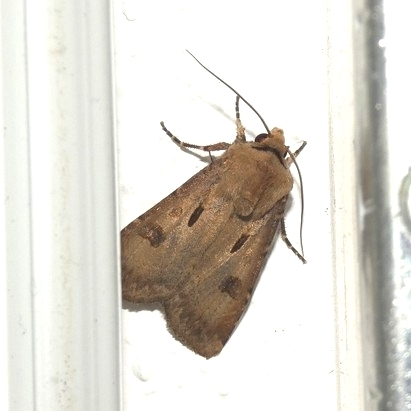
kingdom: Animalia
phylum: Arthropoda
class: Insecta
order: Lepidoptera
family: Noctuidae
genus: Agrotis
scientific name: Agrotis exclamationis
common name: Heart and dart
